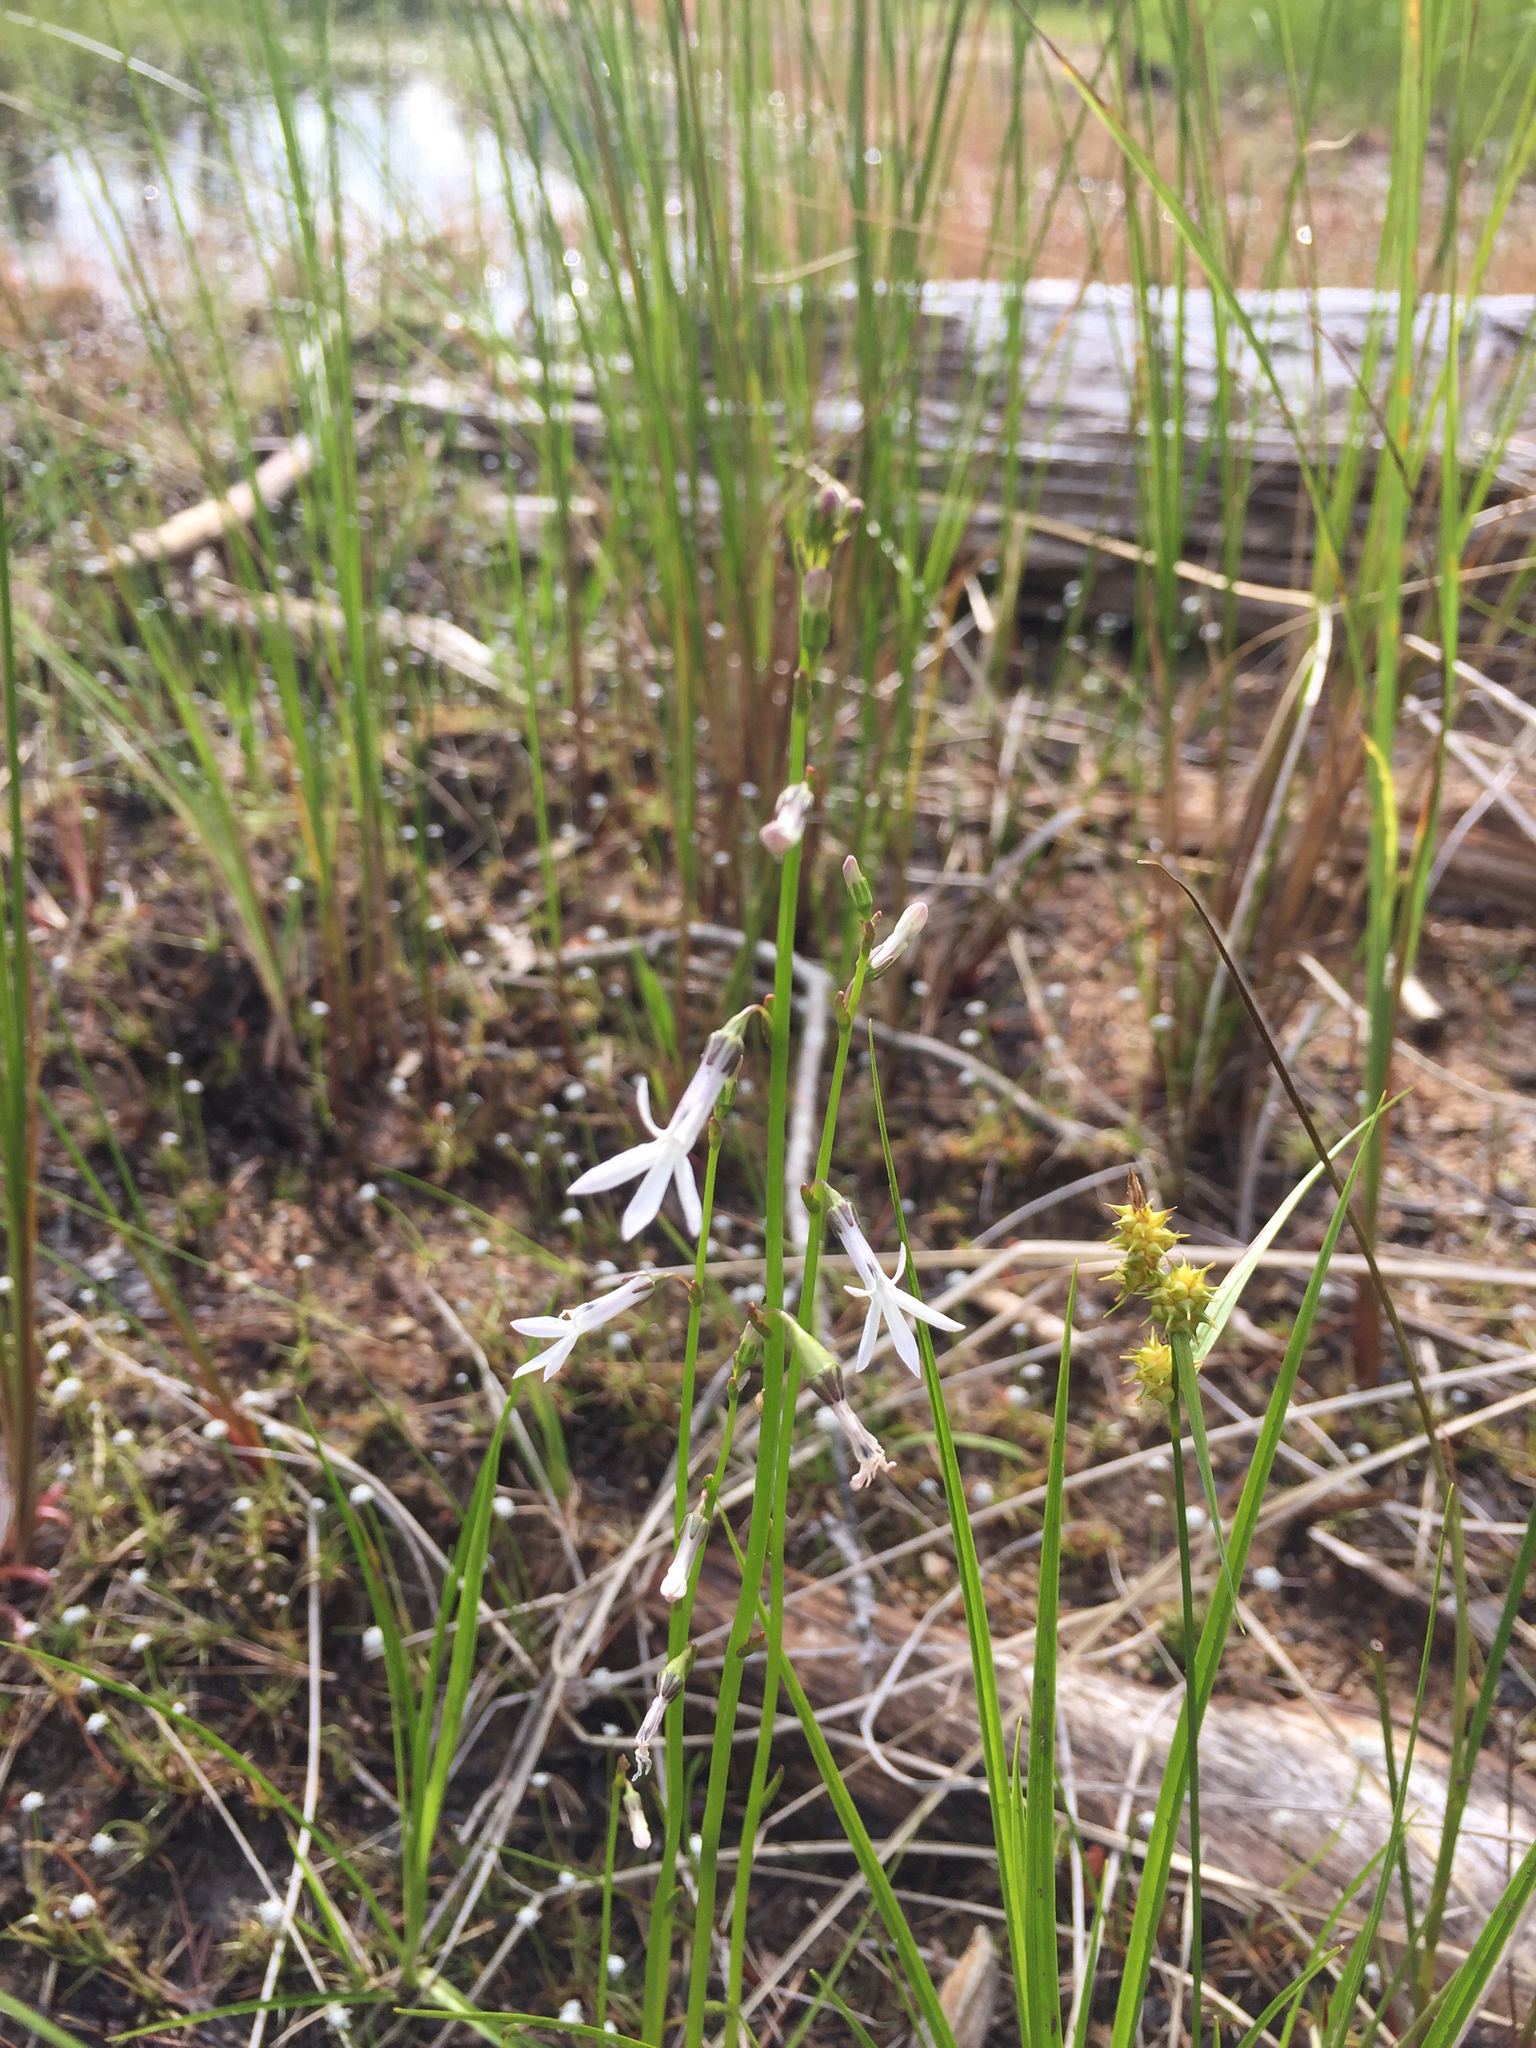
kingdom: Plantae
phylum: Tracheophyta
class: Magnoliopsida
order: Asterales
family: Campanulaceae
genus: Lobelia
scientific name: Lobelia dortmanna
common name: Water lobelia
